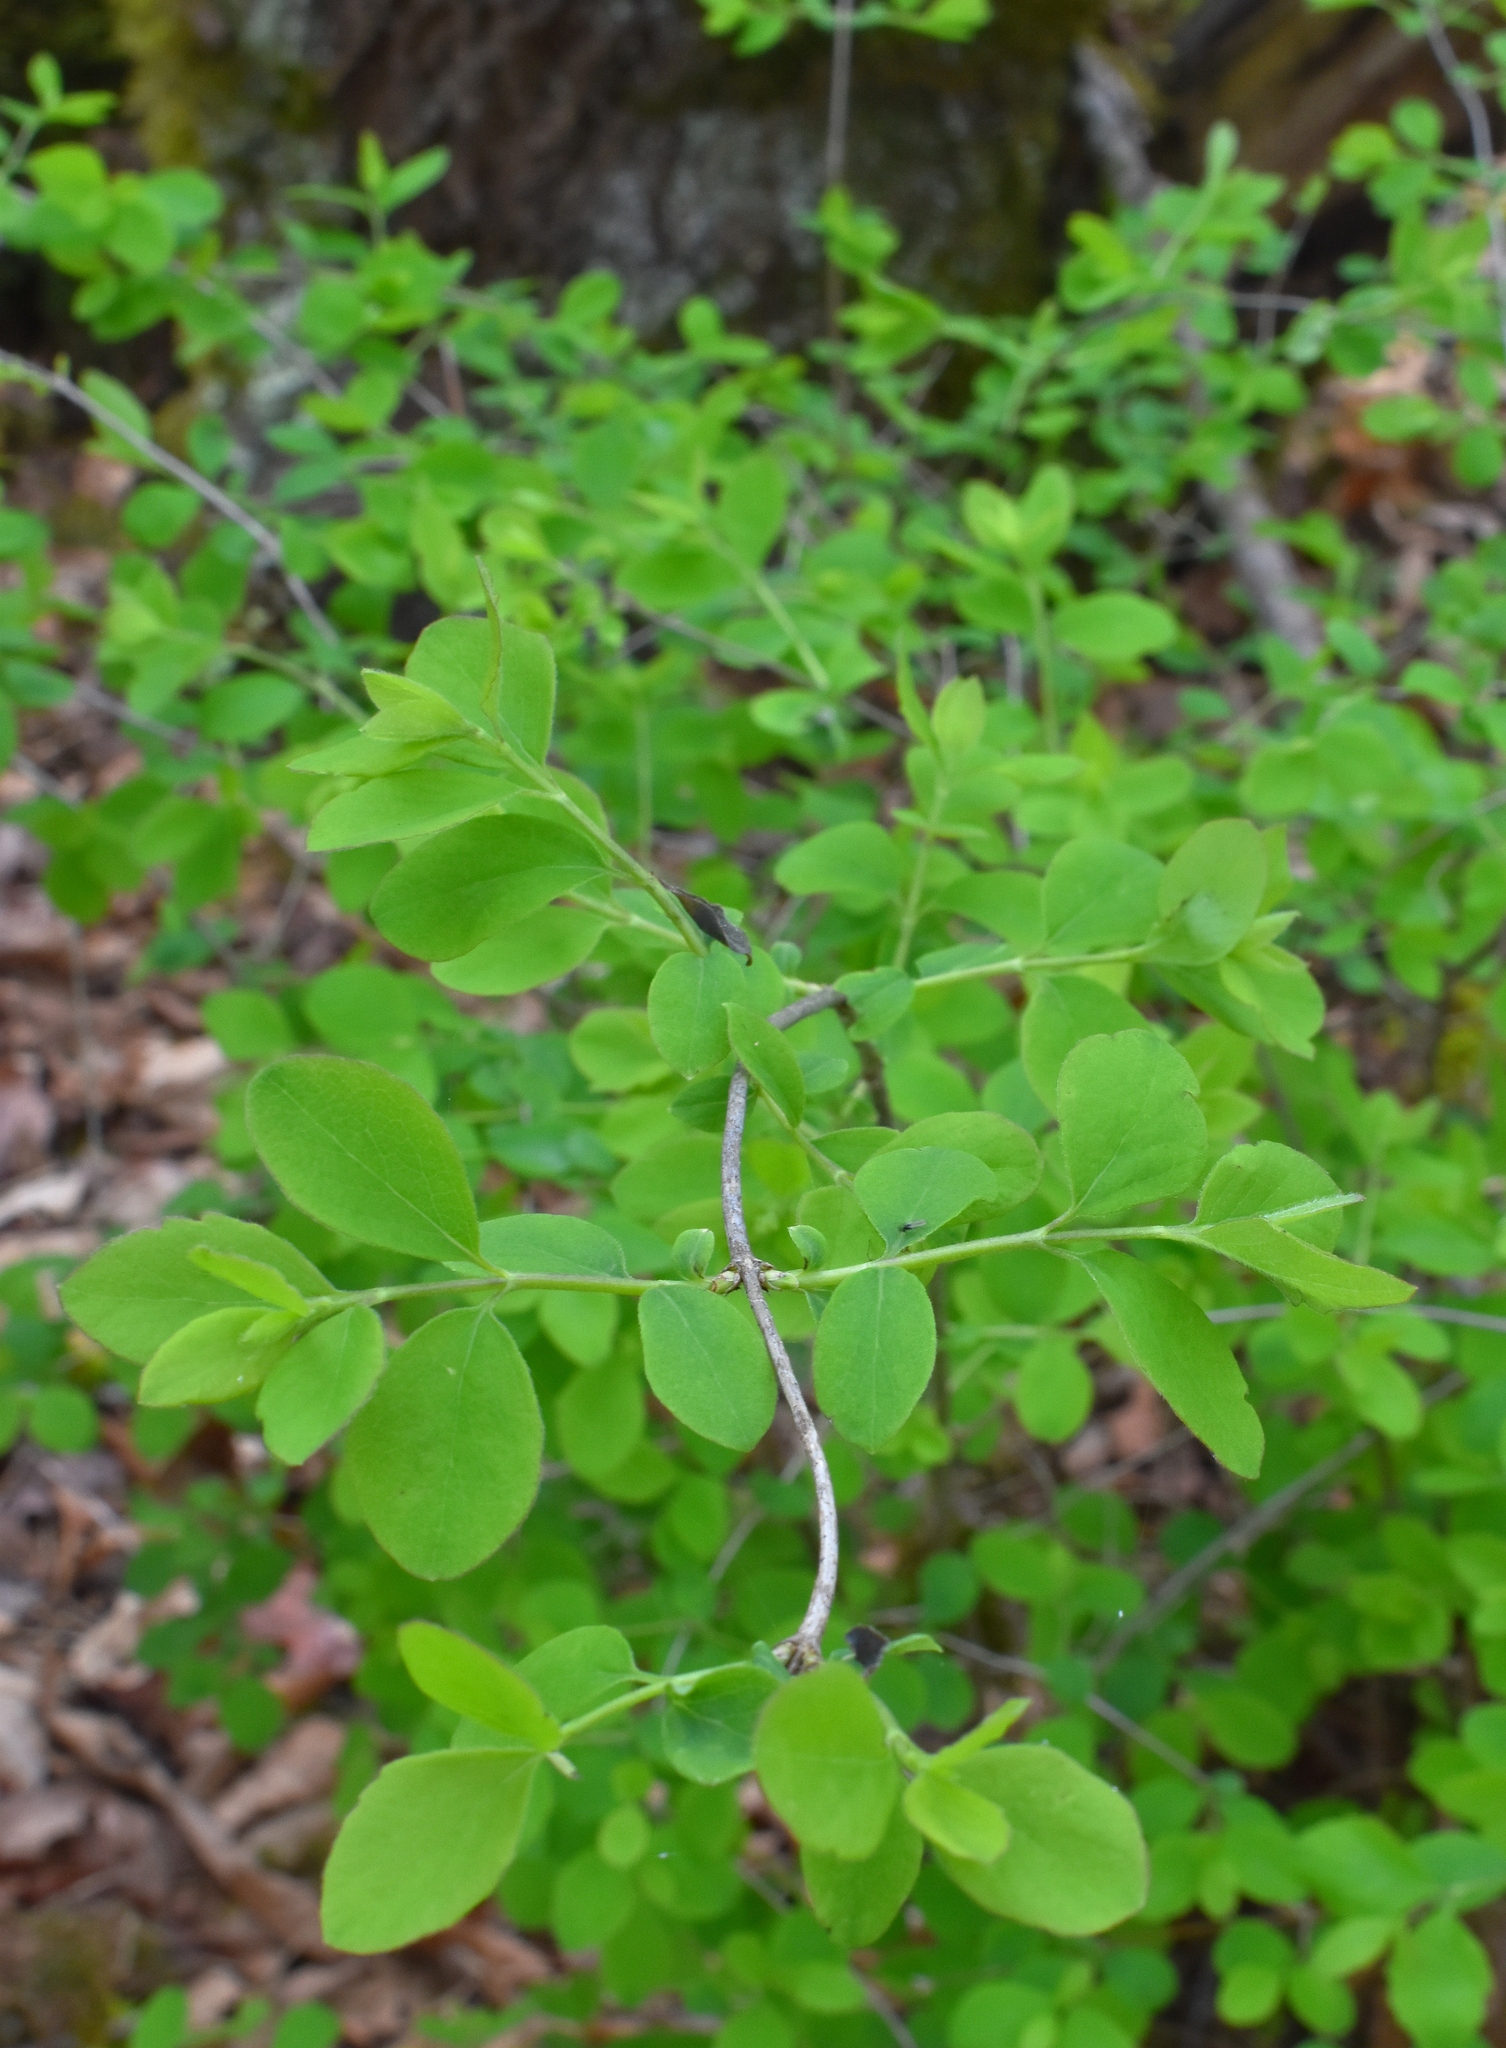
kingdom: Plantae
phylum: Tracheophyta
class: Magnoliopsida
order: Dipsacales
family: Caprifoliaceae
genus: Symphoricarpos
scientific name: Symphoricarpos albus
